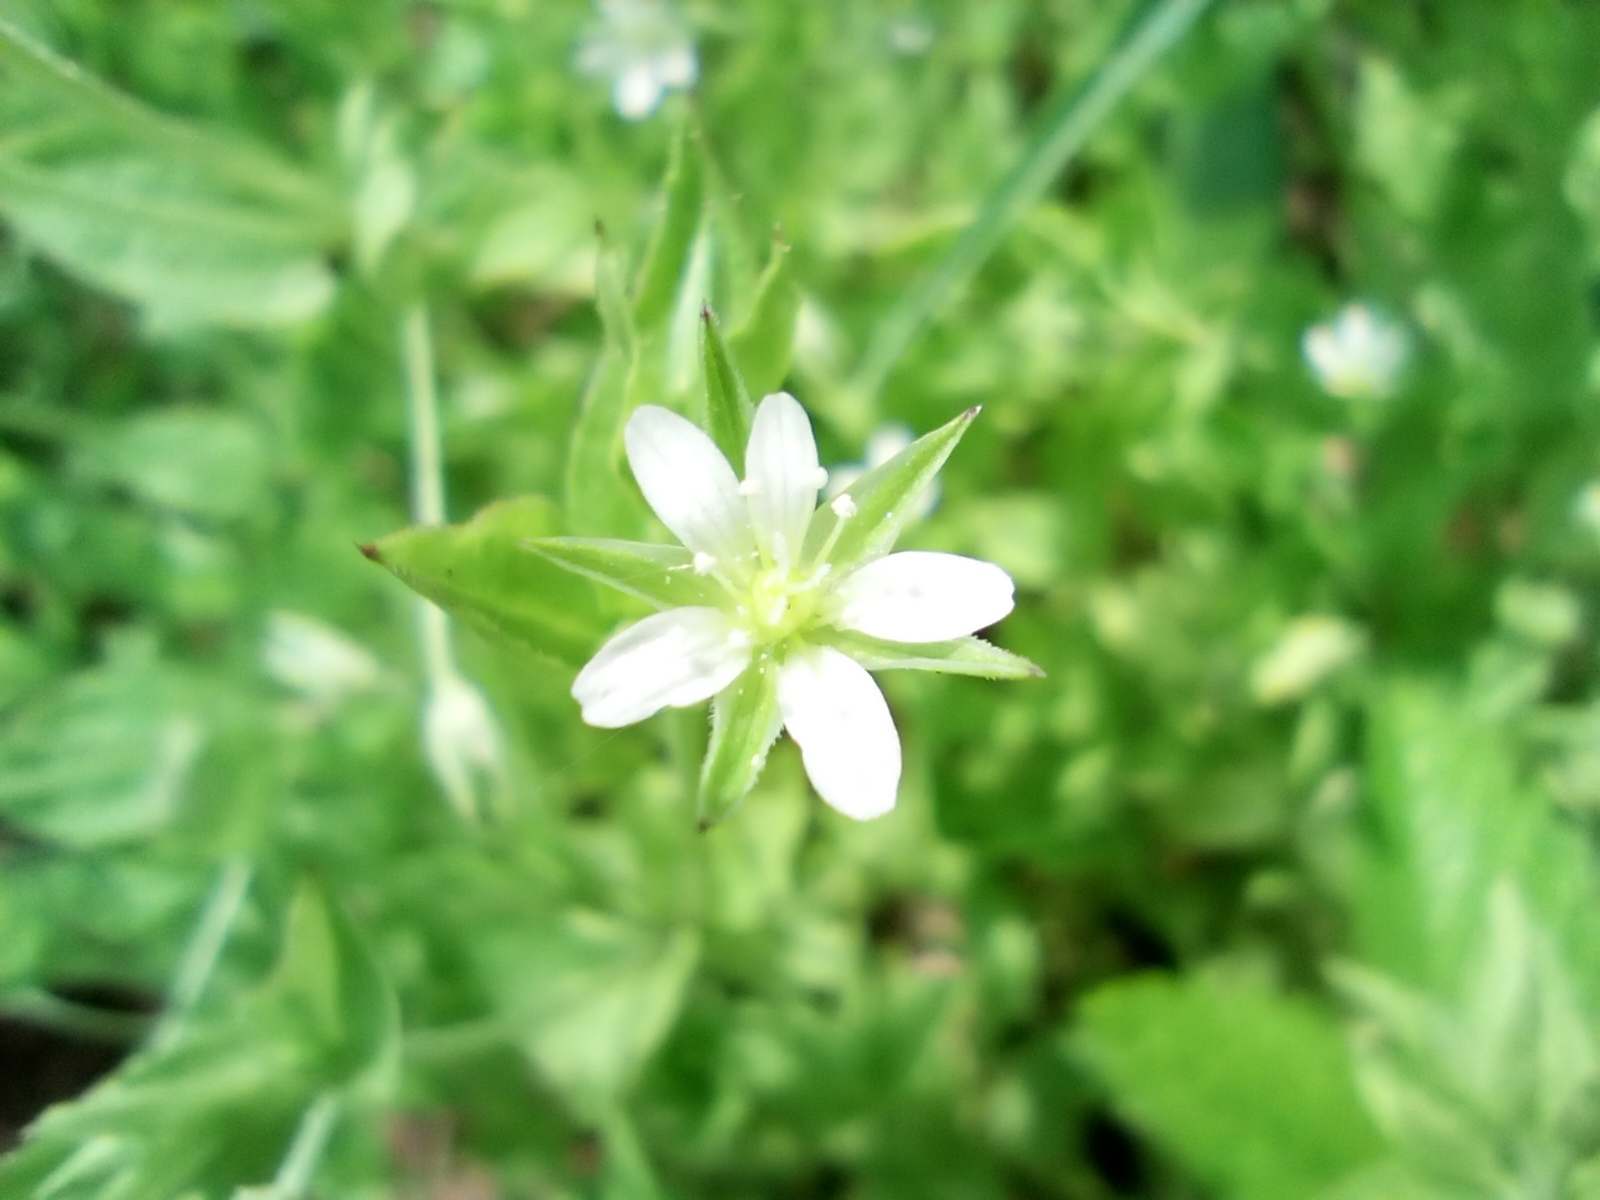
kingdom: Plantae
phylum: Tracheophyta
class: Magnoliopsida
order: Caryophyllales
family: Caryophyllaceae
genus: Moehringia
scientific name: Moehringia trinervia
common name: Three-nerved sandwort
